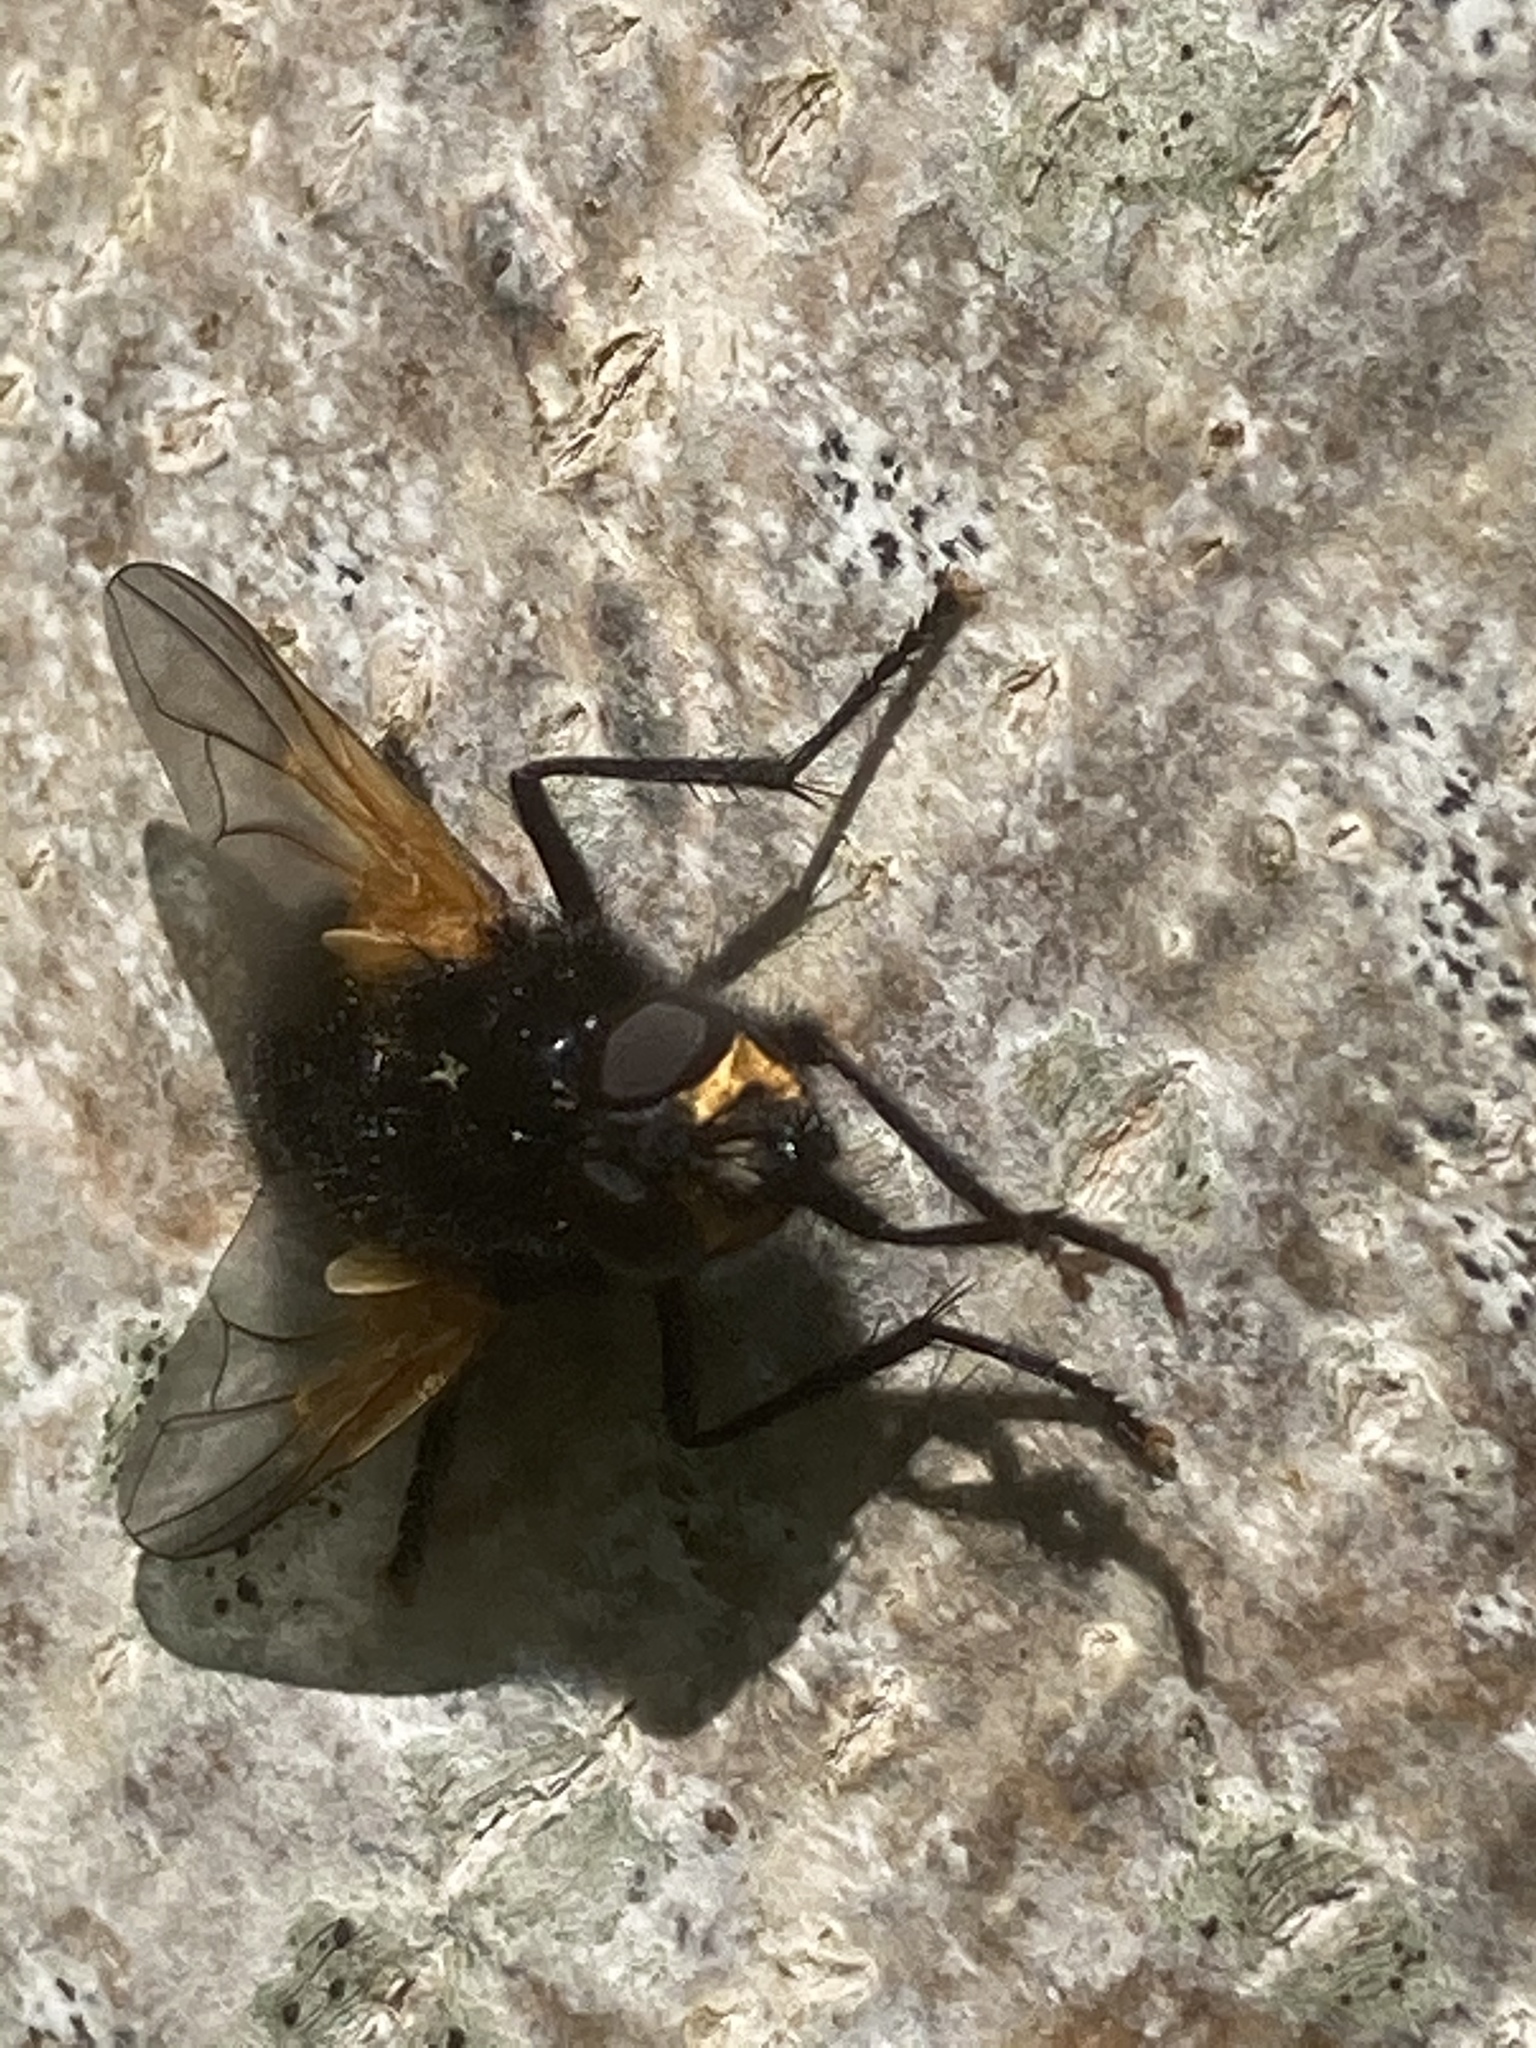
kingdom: Animalia
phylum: Arthropoda
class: Insecta
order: Diptera
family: Muscidae
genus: Mesembrina
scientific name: Mesembrina meridiana
